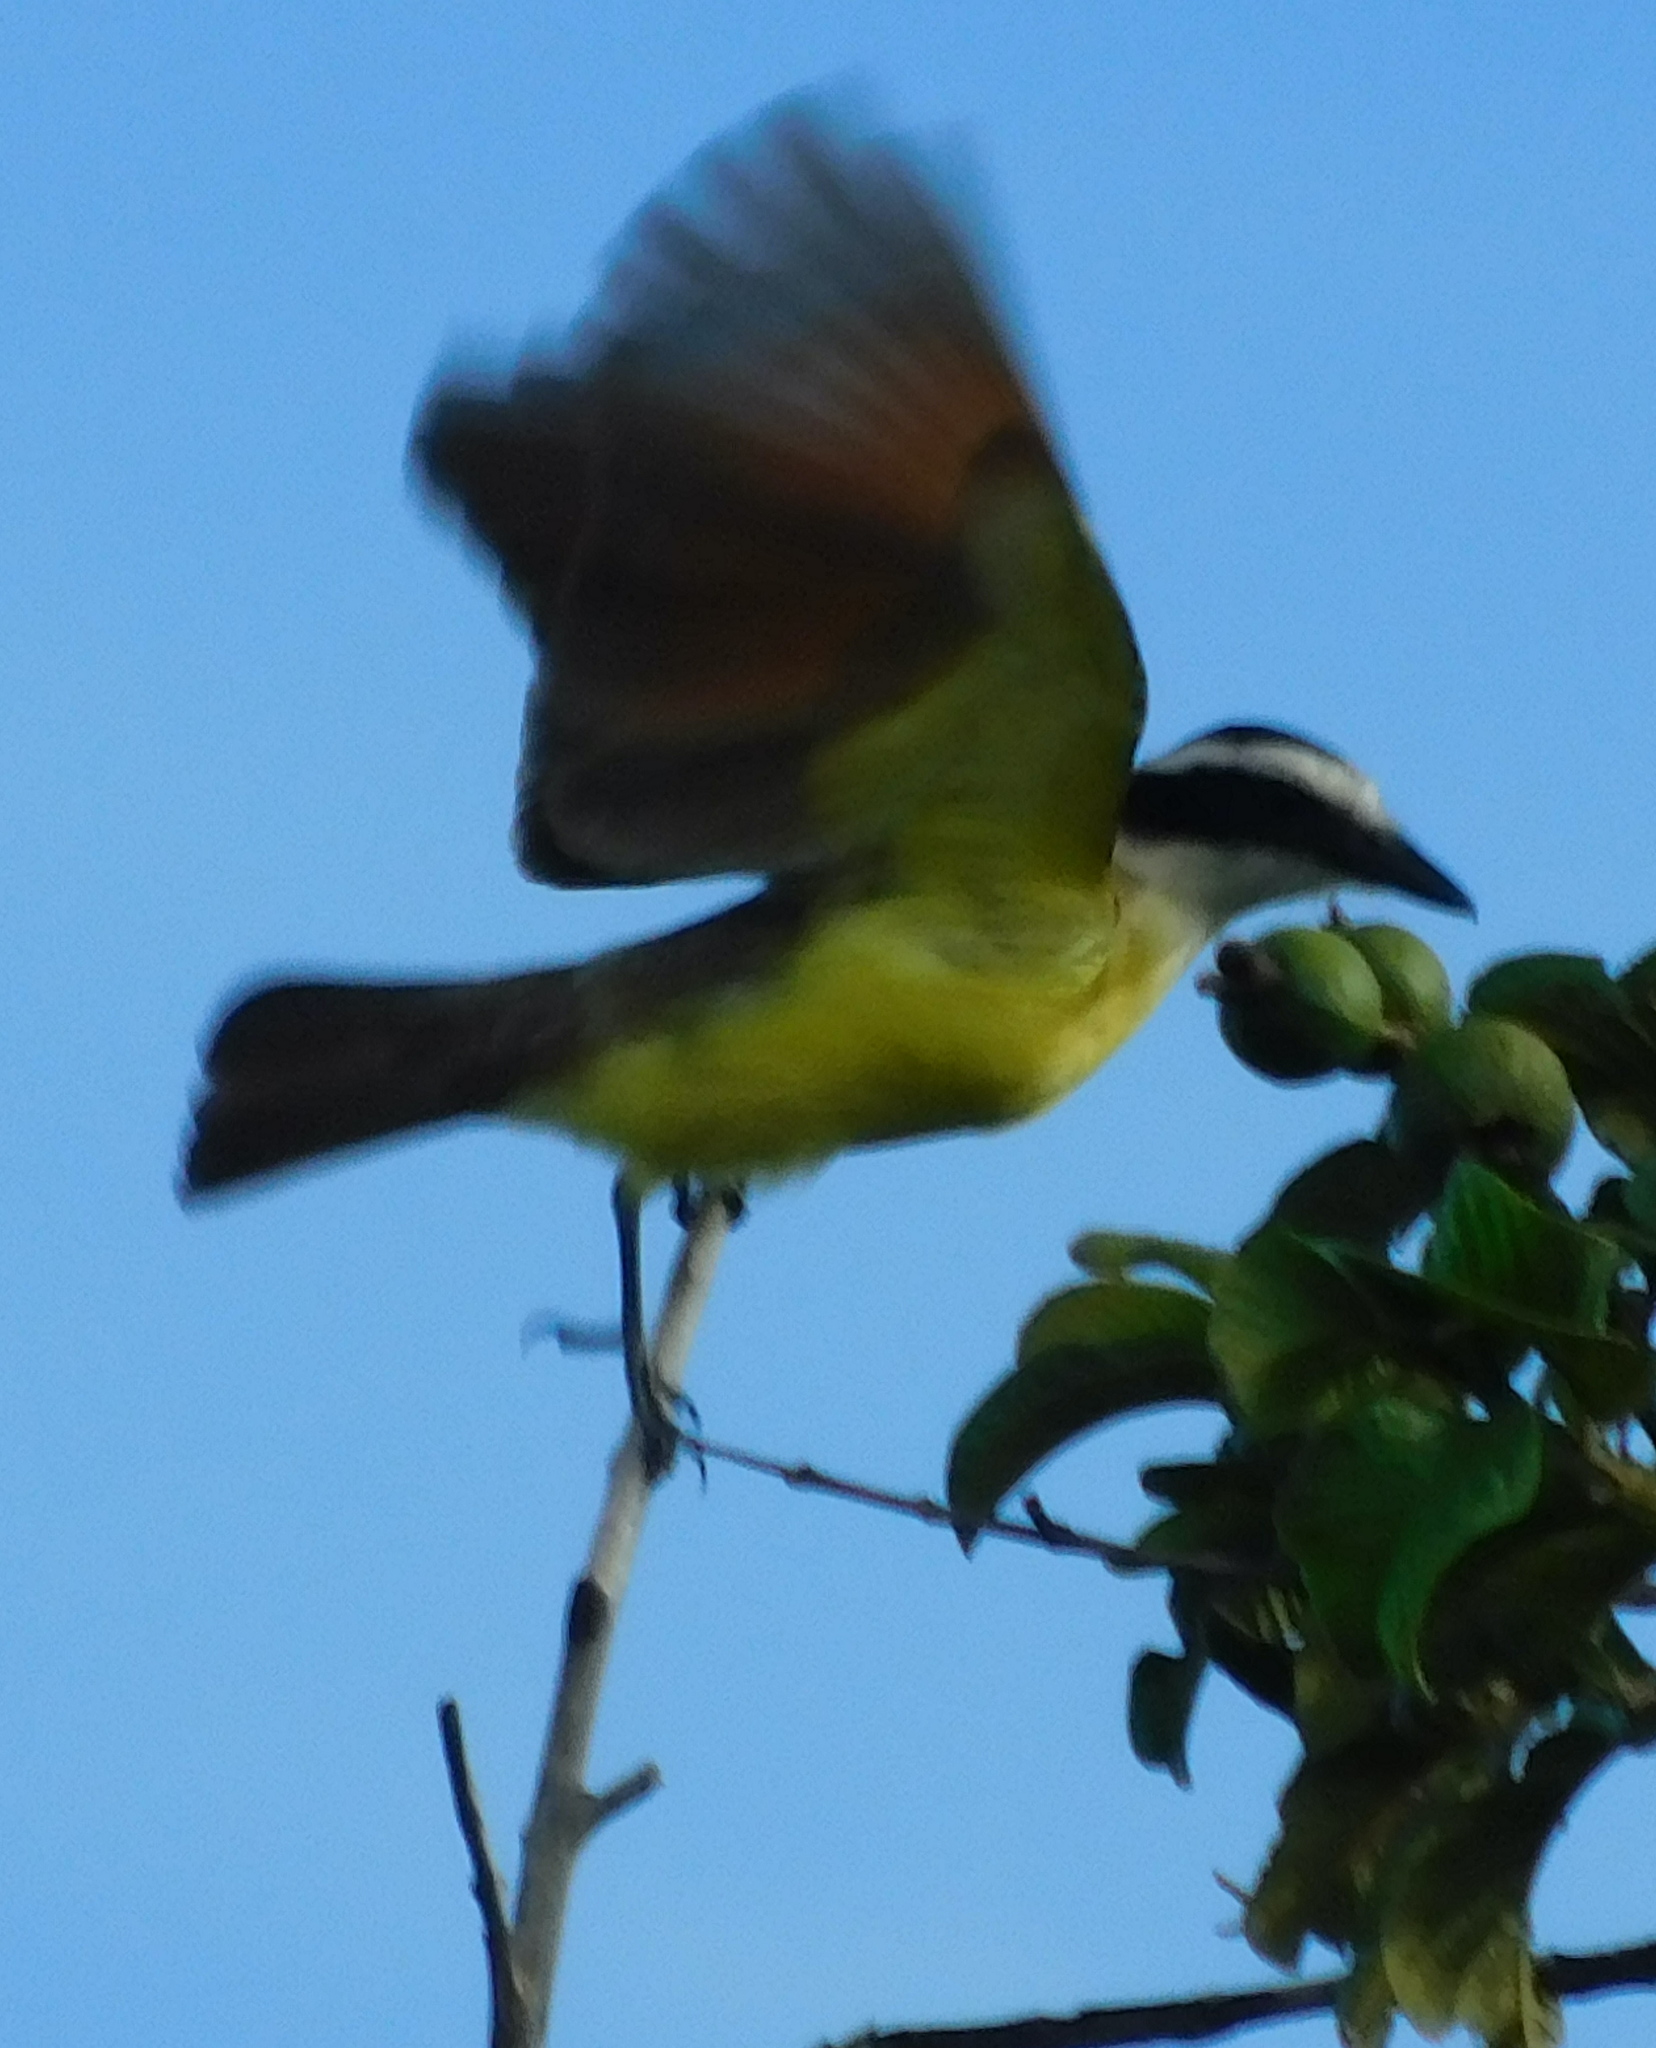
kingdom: Animalia
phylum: Chordata
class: Aves
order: Passeriformes
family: Tyrannidae
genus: Pitangus
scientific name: Pitangus sulphuratus
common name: Great kiskadee
